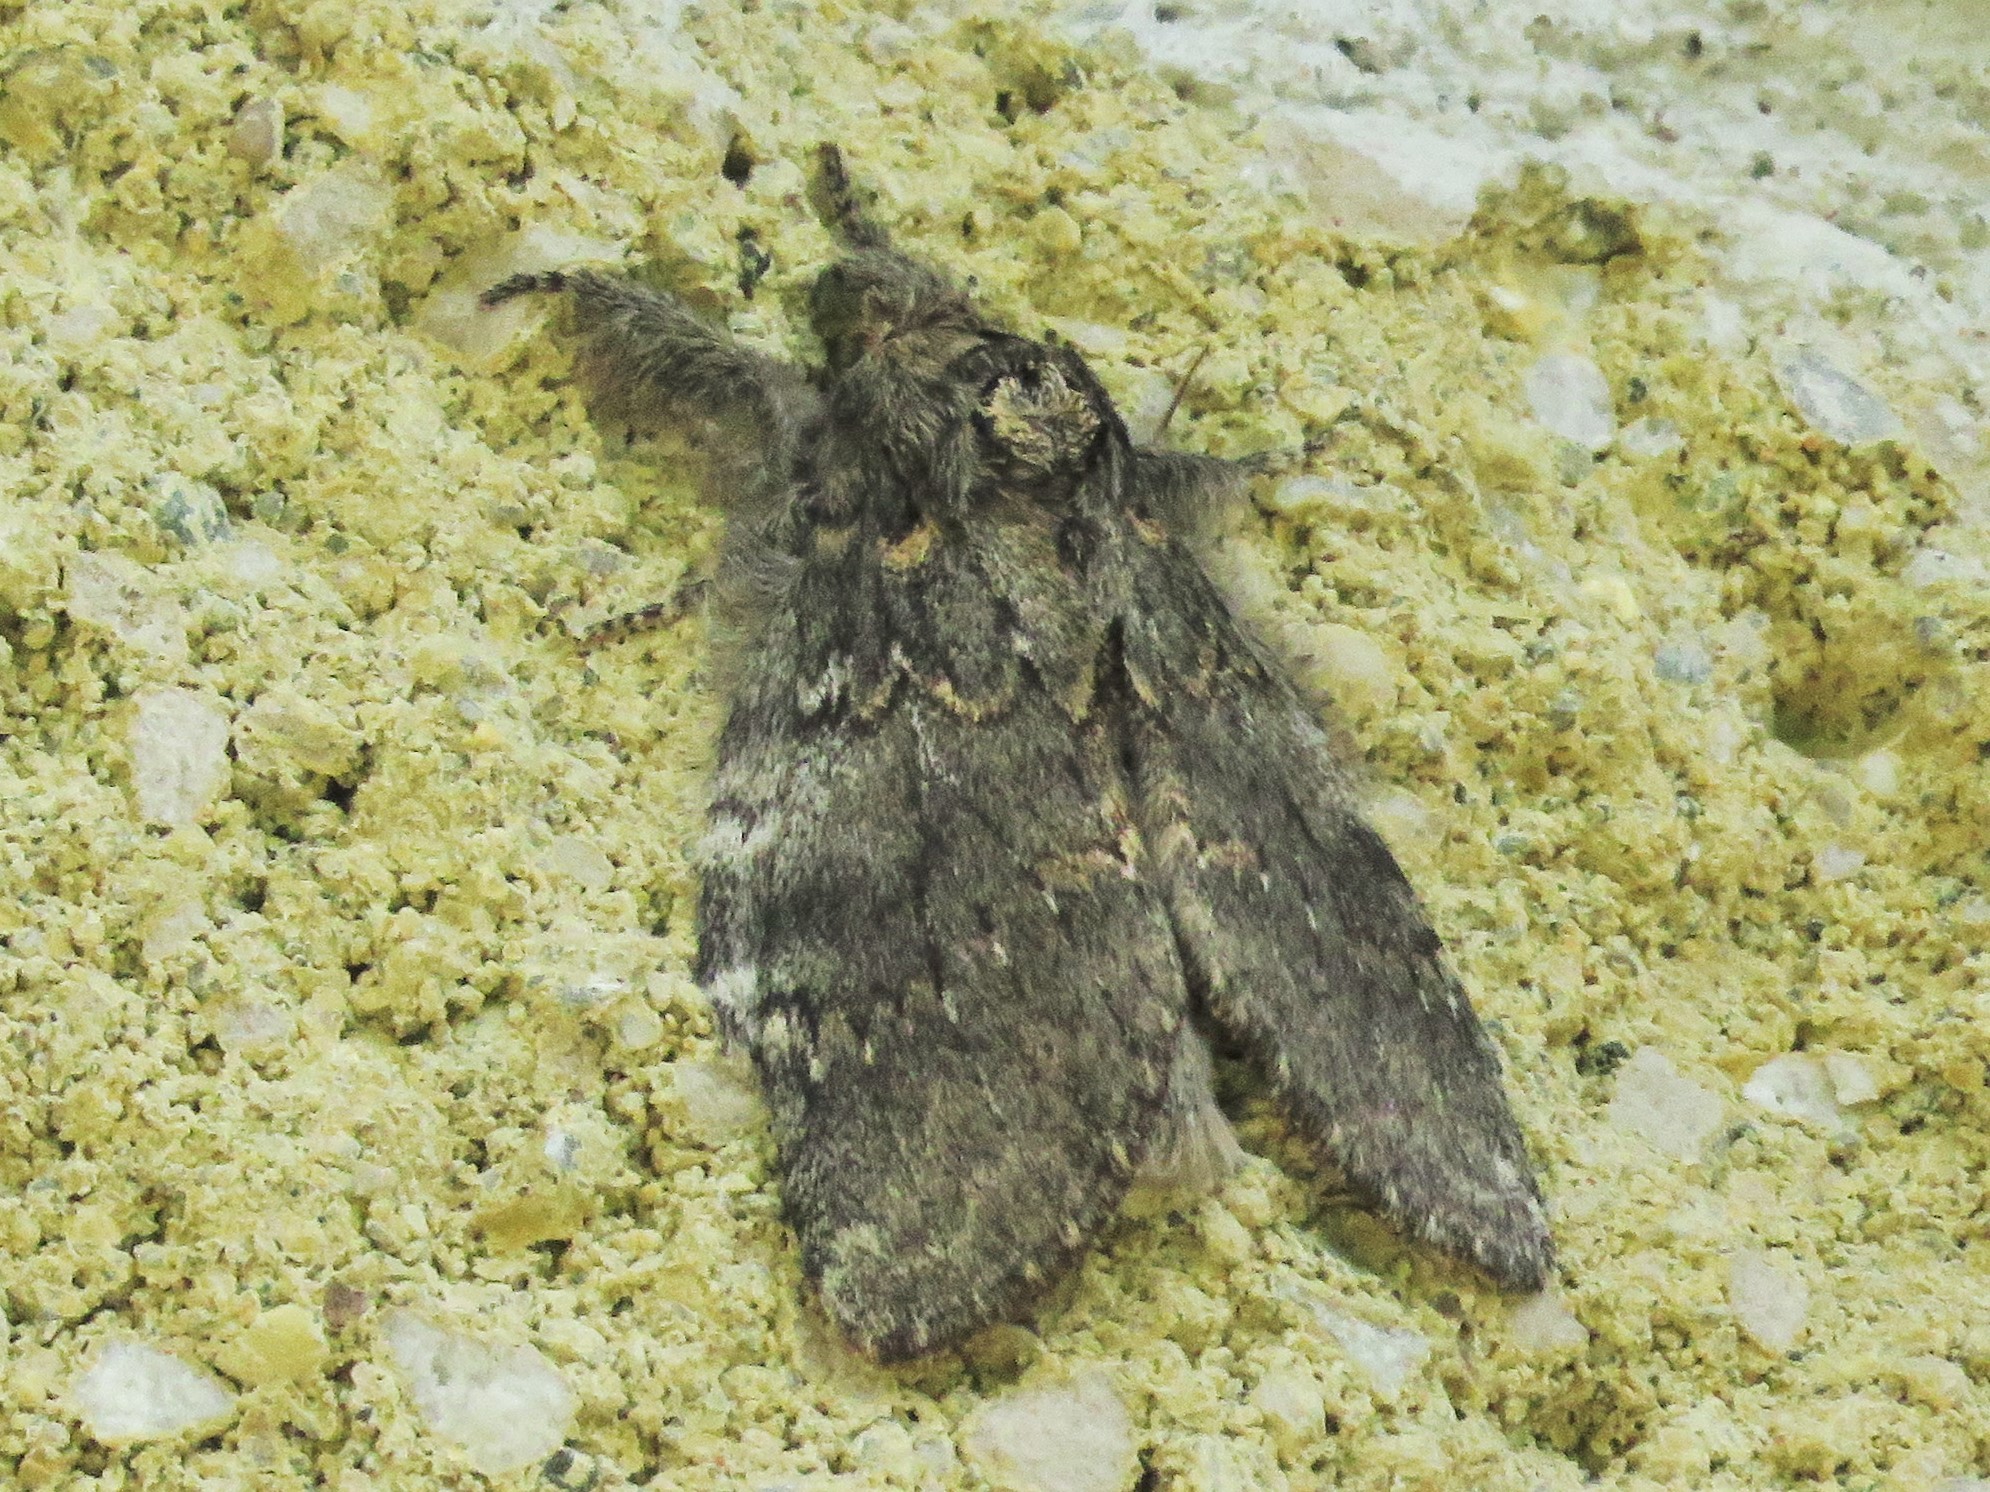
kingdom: Animalia
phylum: Arthropoda
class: Insecta
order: Lepidoptera
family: Notodontidae
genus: Peridea
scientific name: Peridea angulosa
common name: Angulose prominent
